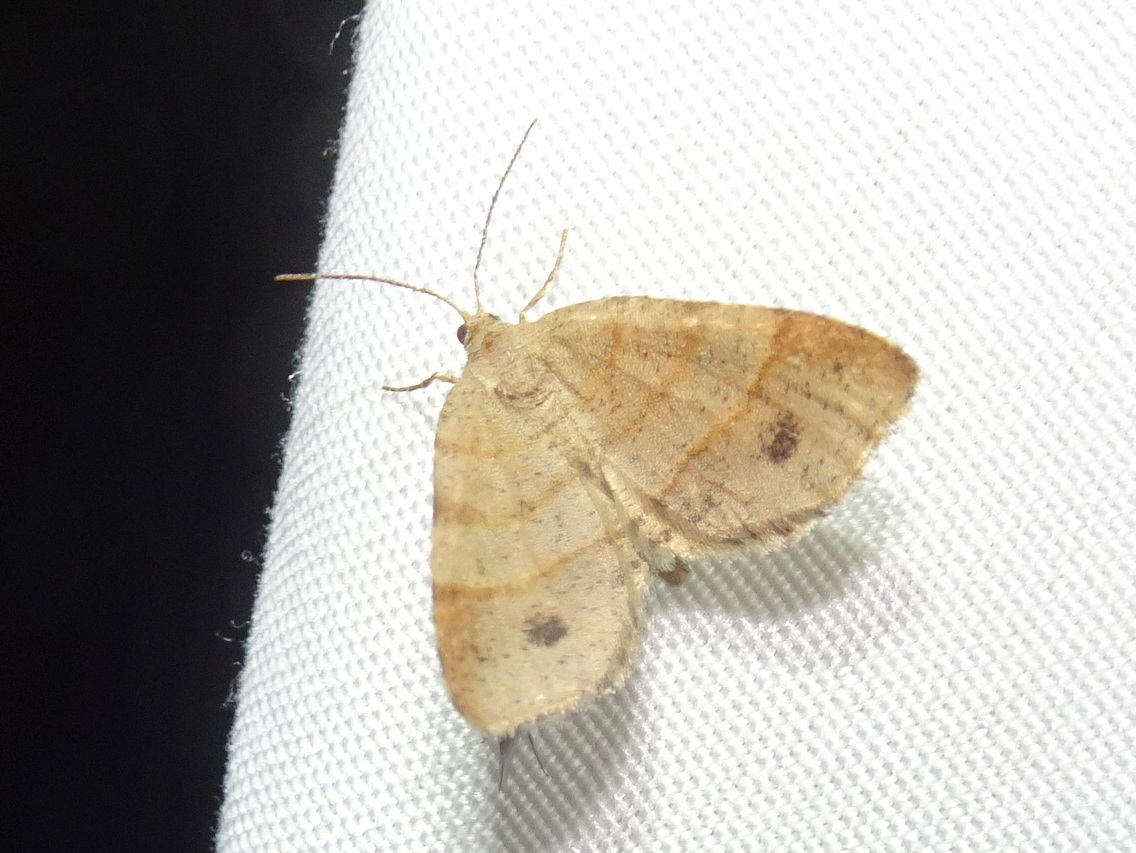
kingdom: Animalia
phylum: Arthropoda
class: Insecta
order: Lepidoptera
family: Geometridae
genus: Mellilla
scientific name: Mellilla xanthometata
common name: Orange wing moth
